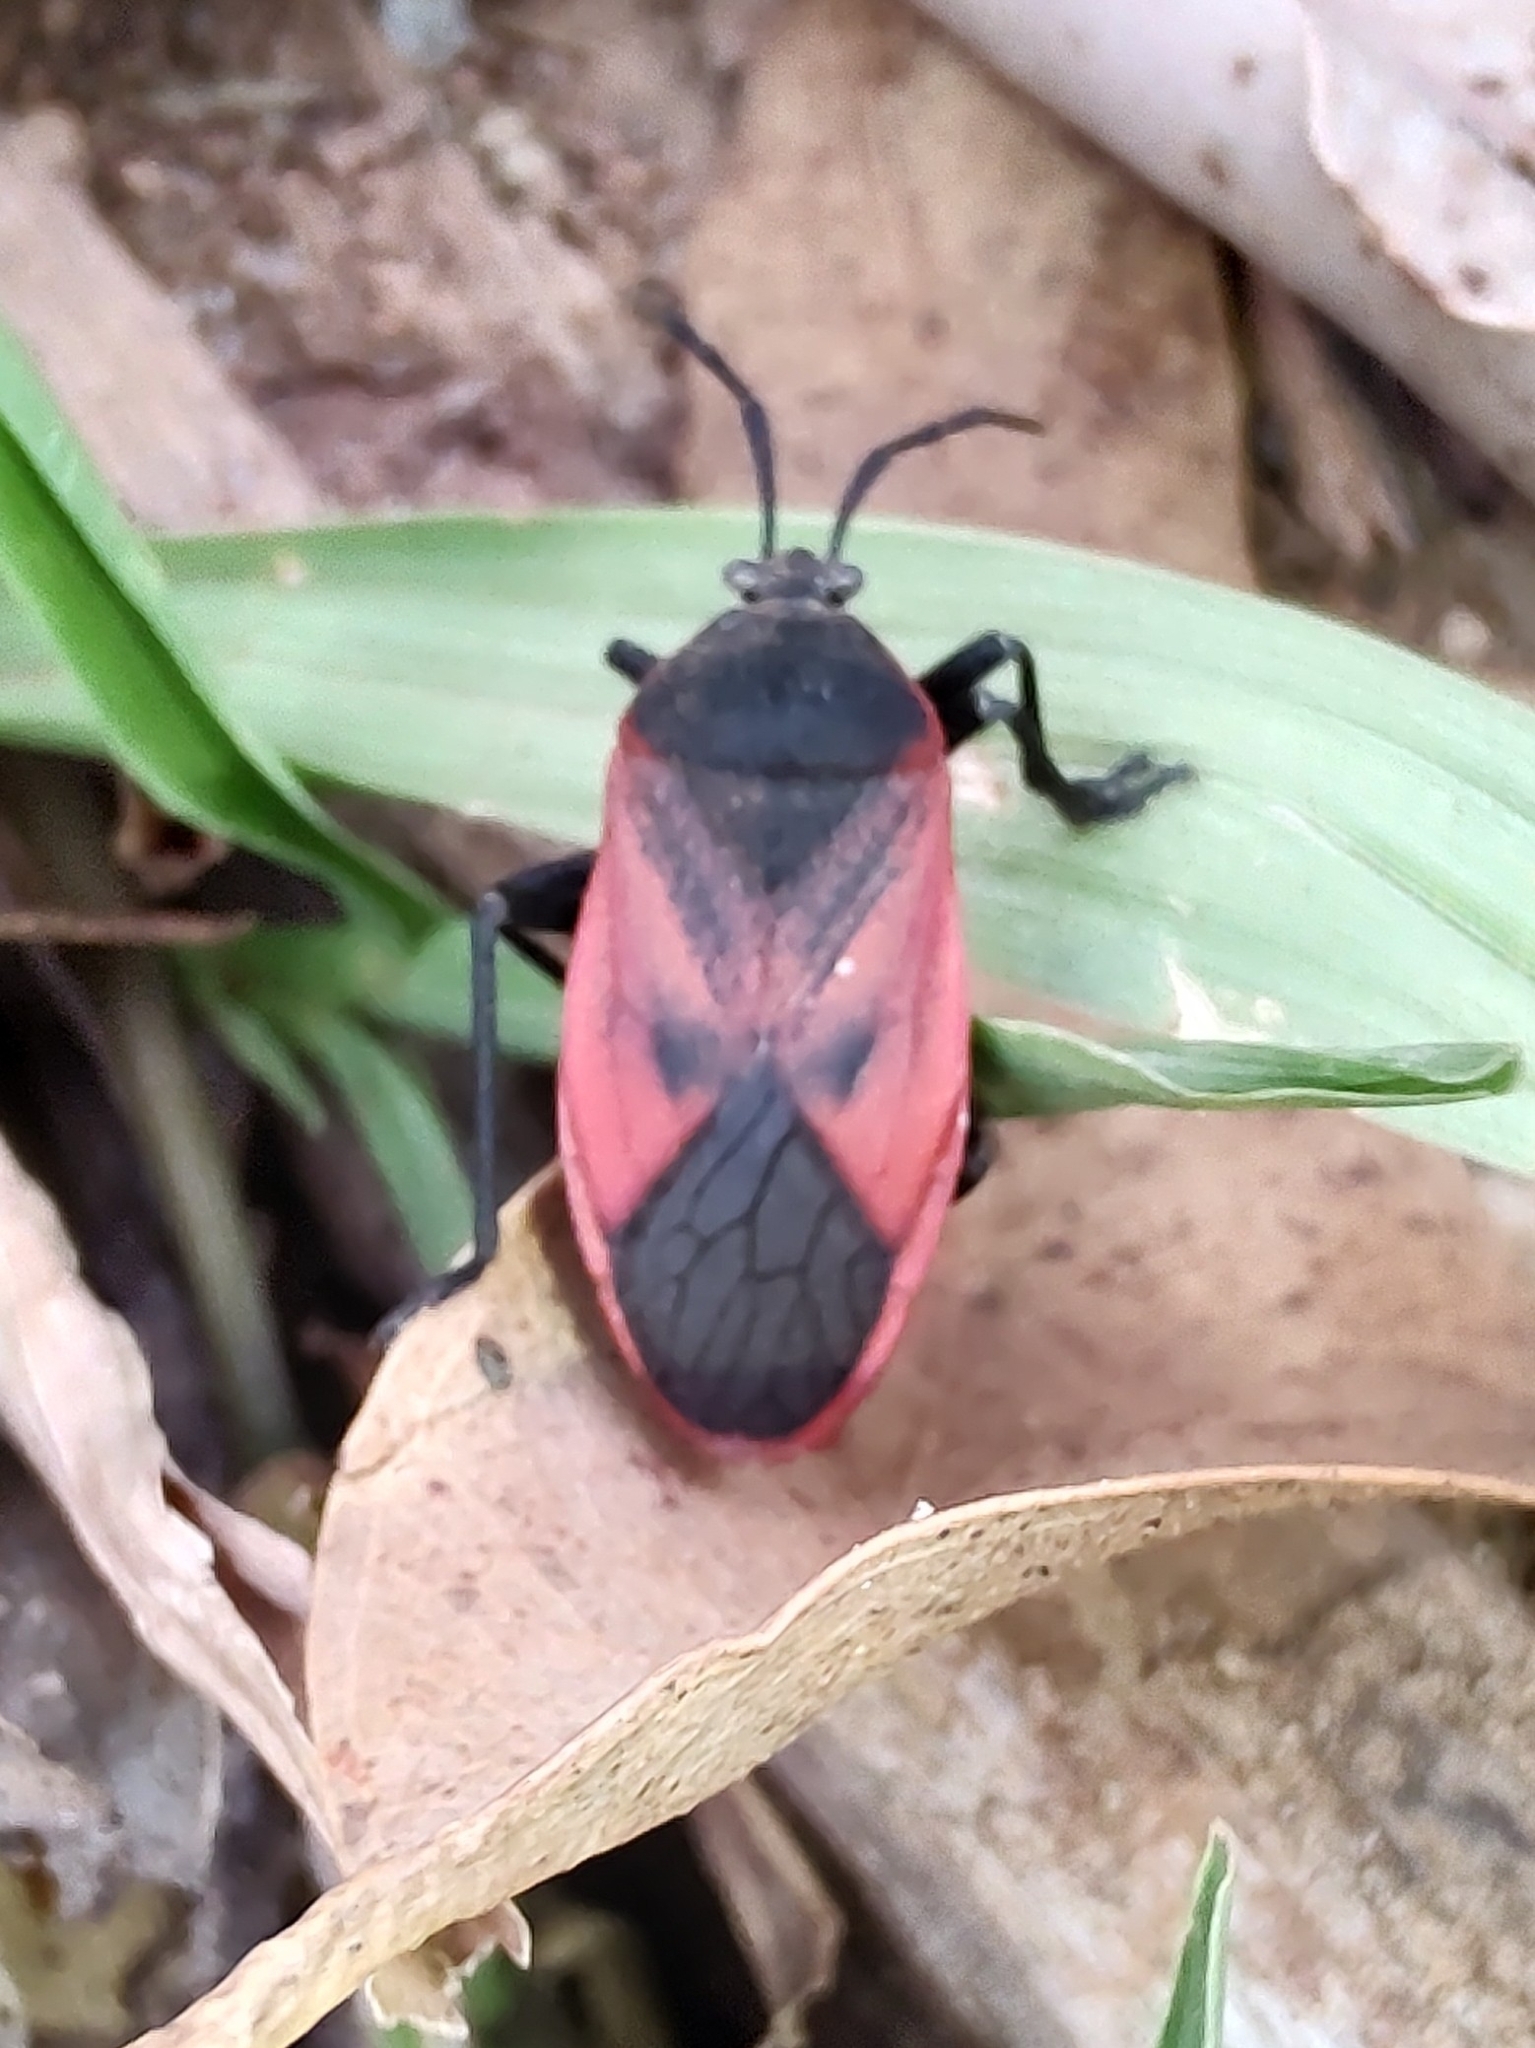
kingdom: Animalia
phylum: Arthropoda
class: Insecta
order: Hemiptera
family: Largidae
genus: Largus
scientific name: Largus rufipennis
